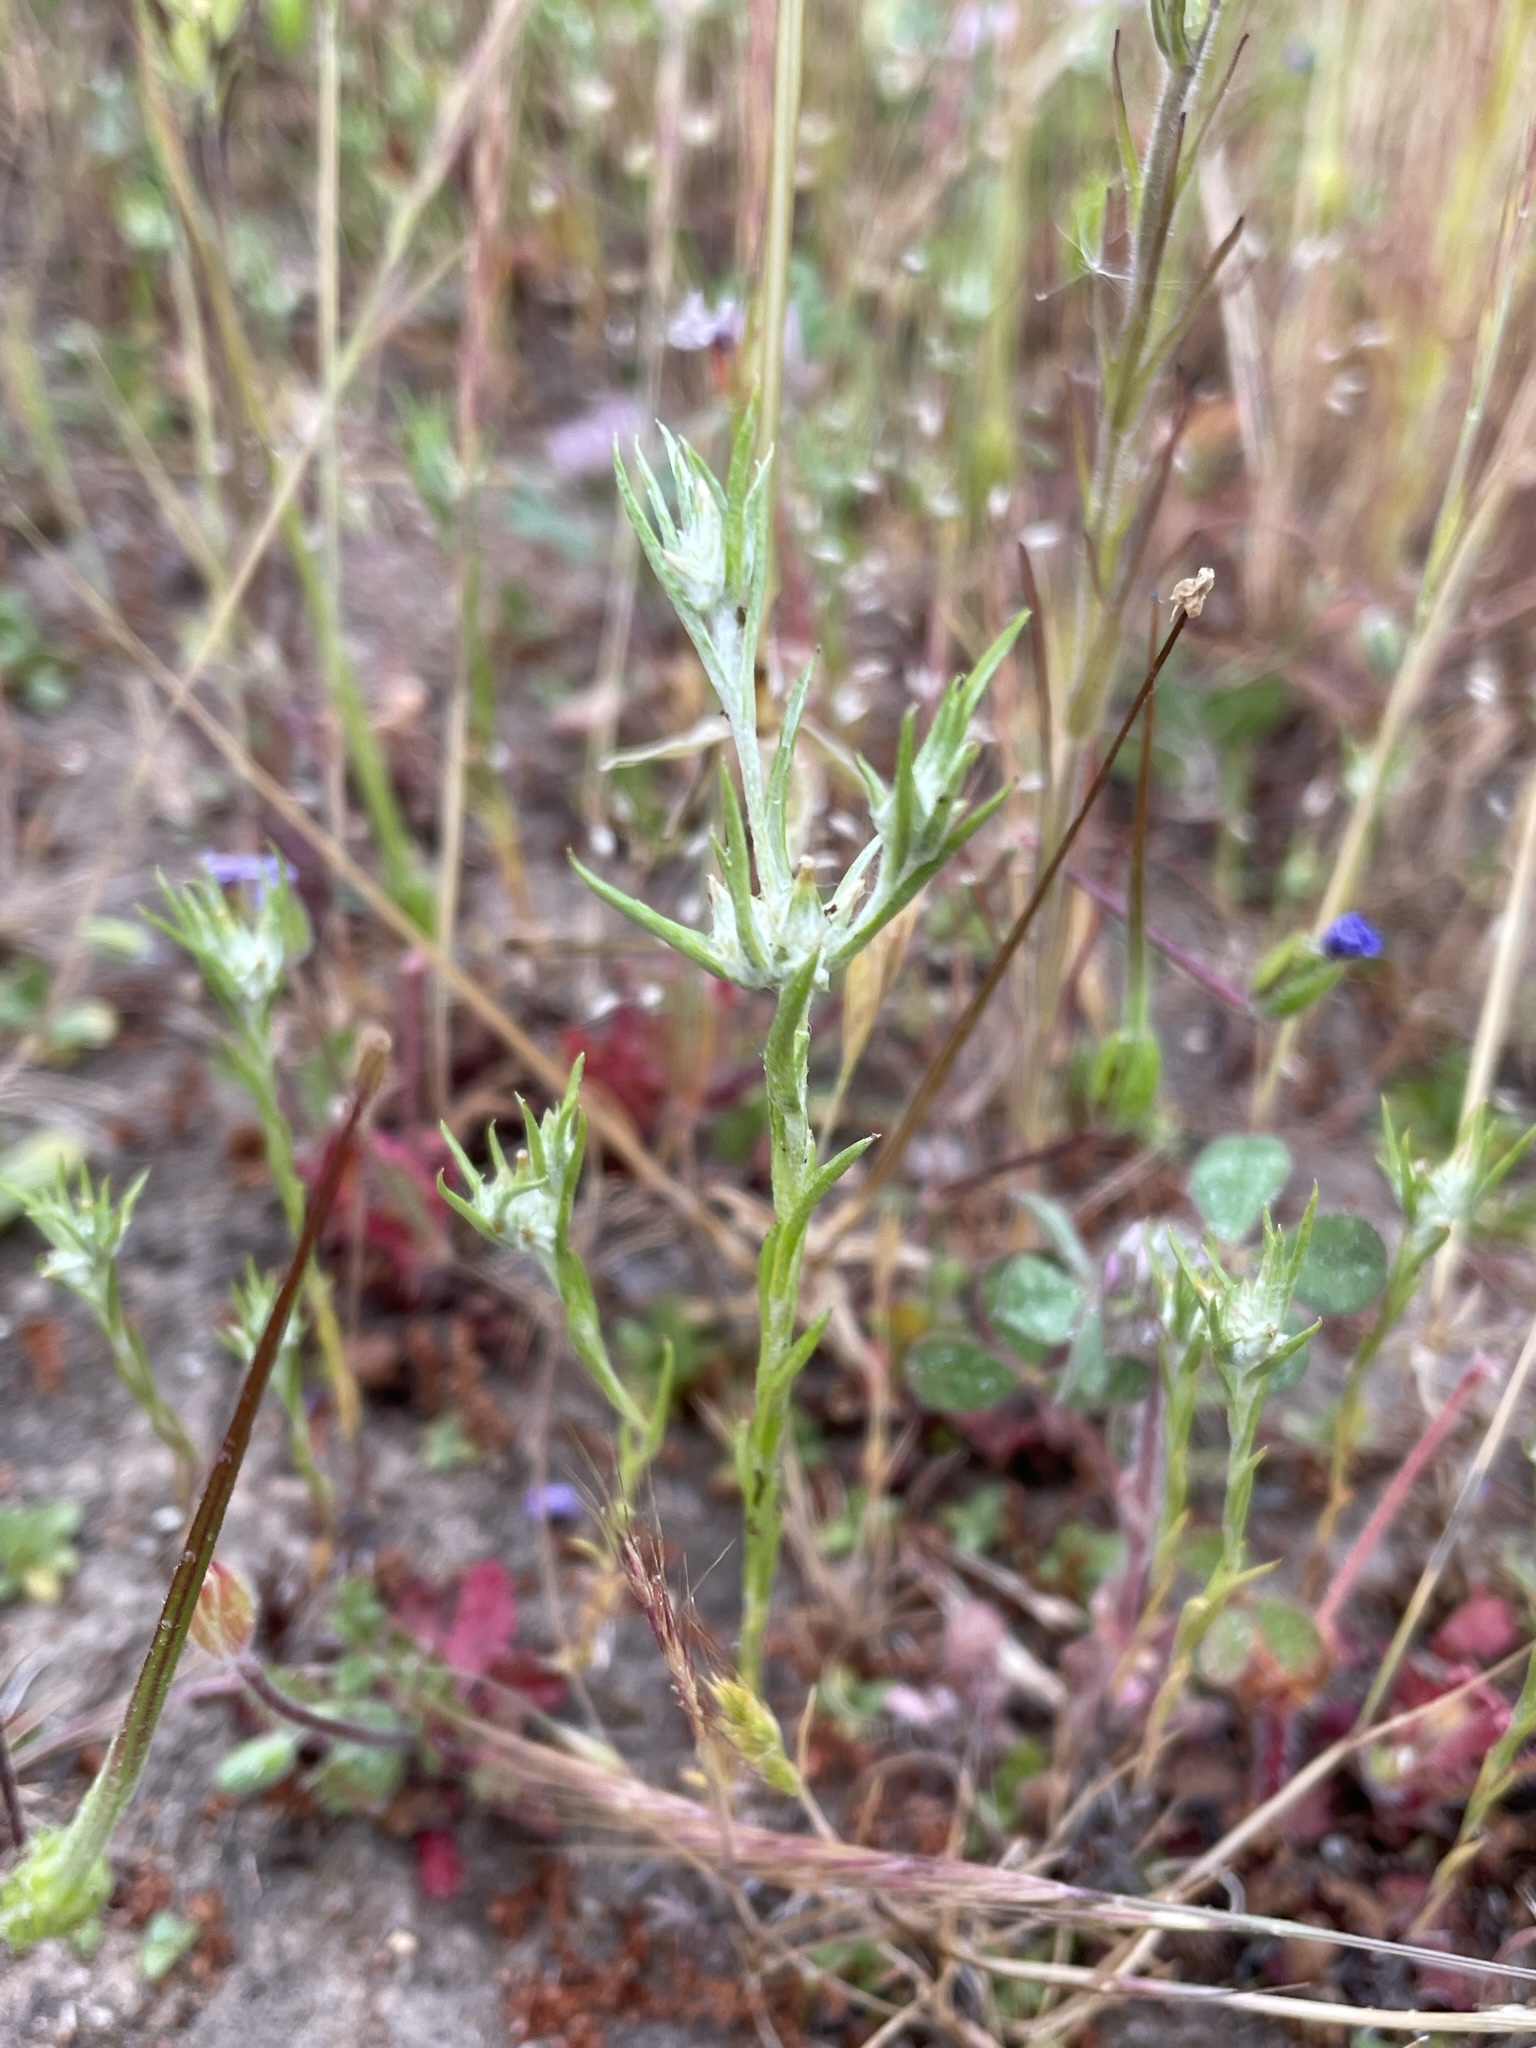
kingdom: Plantae
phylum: Tracheophyta
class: Magnoliopsida
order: Asterales
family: Asteraceae
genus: Logfia
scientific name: Logfia gallica
